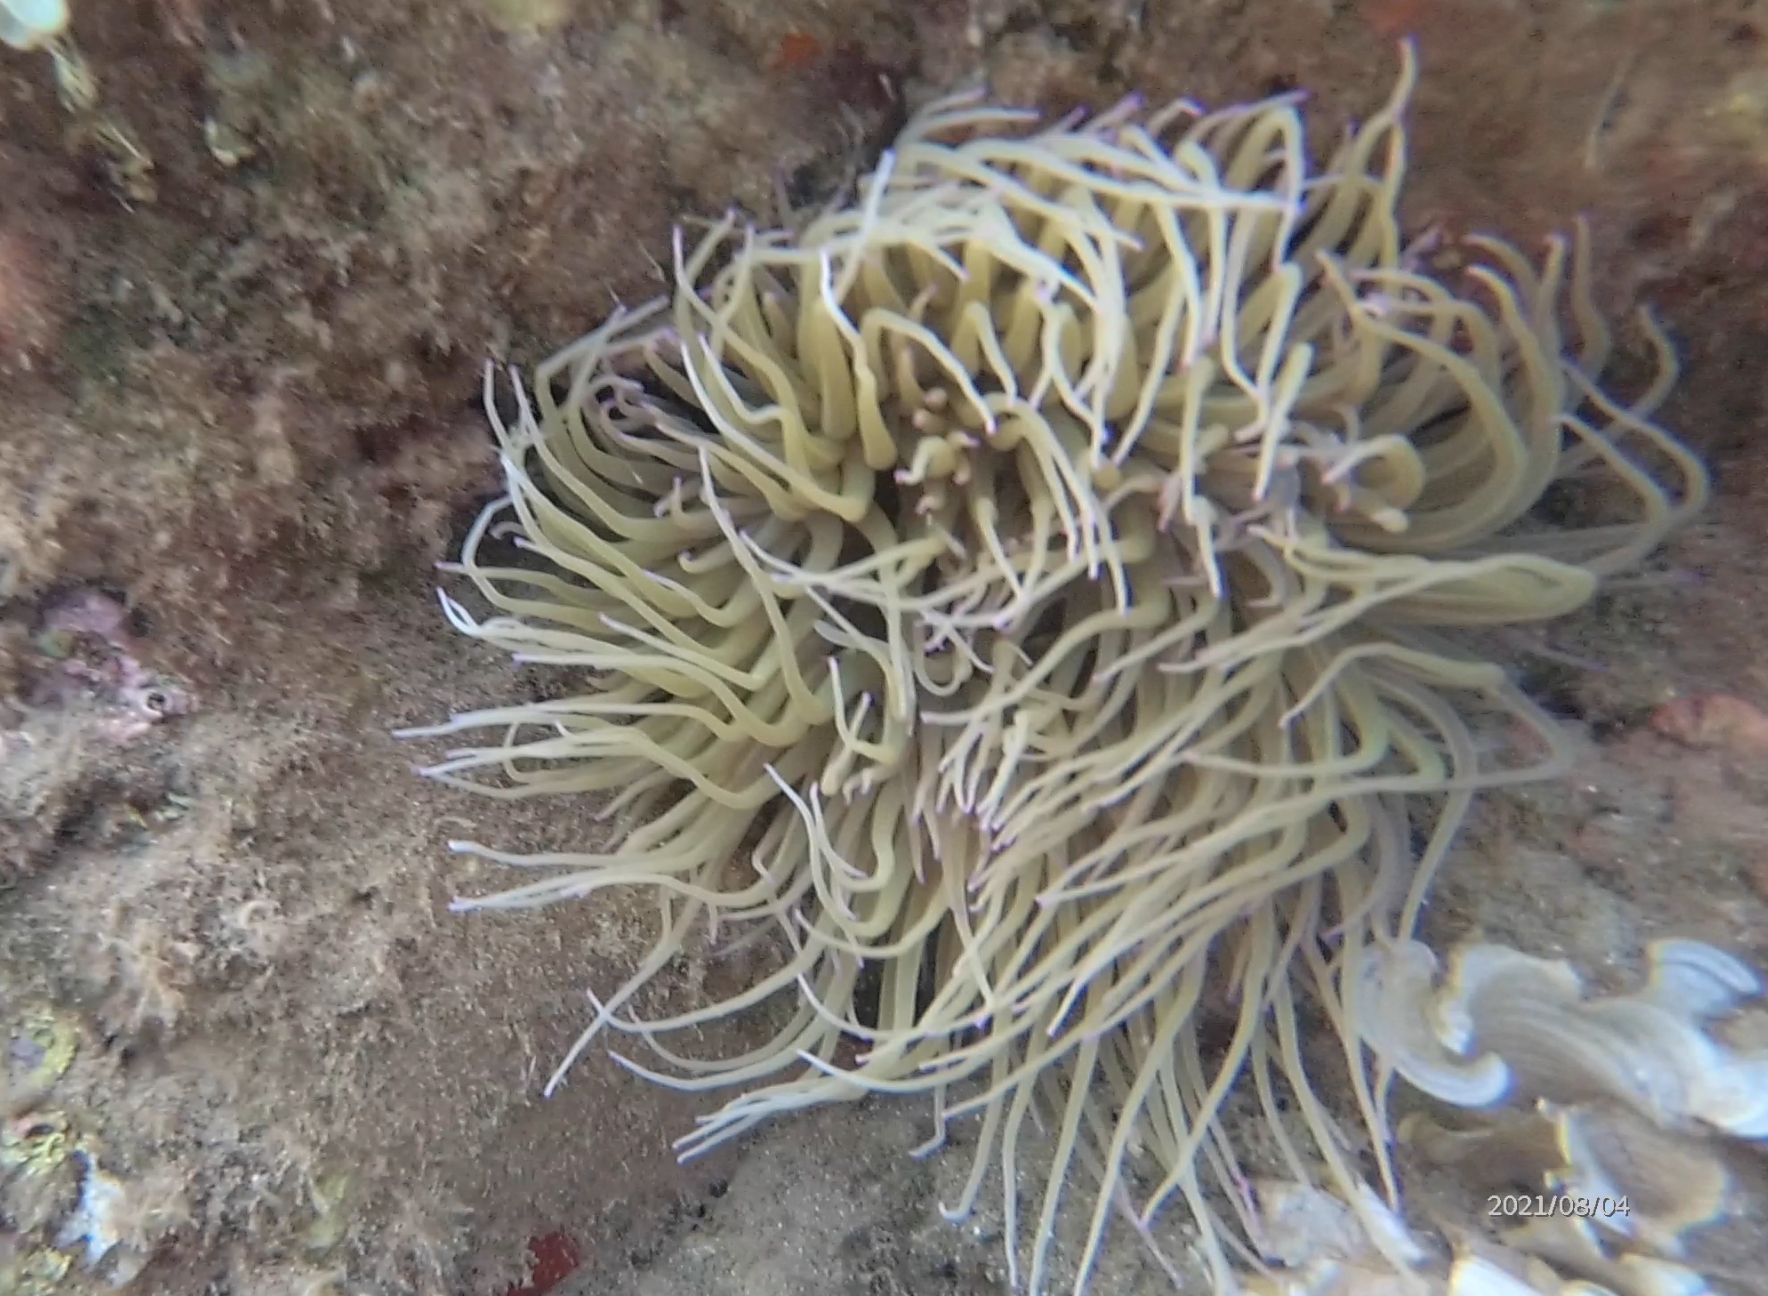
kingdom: Animalia
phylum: Cnidaria
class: Anthozoa
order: Actiniaria
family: Actiniidae
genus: Anemonia
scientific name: Anemonia viridis
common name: Snakelocks anemone
